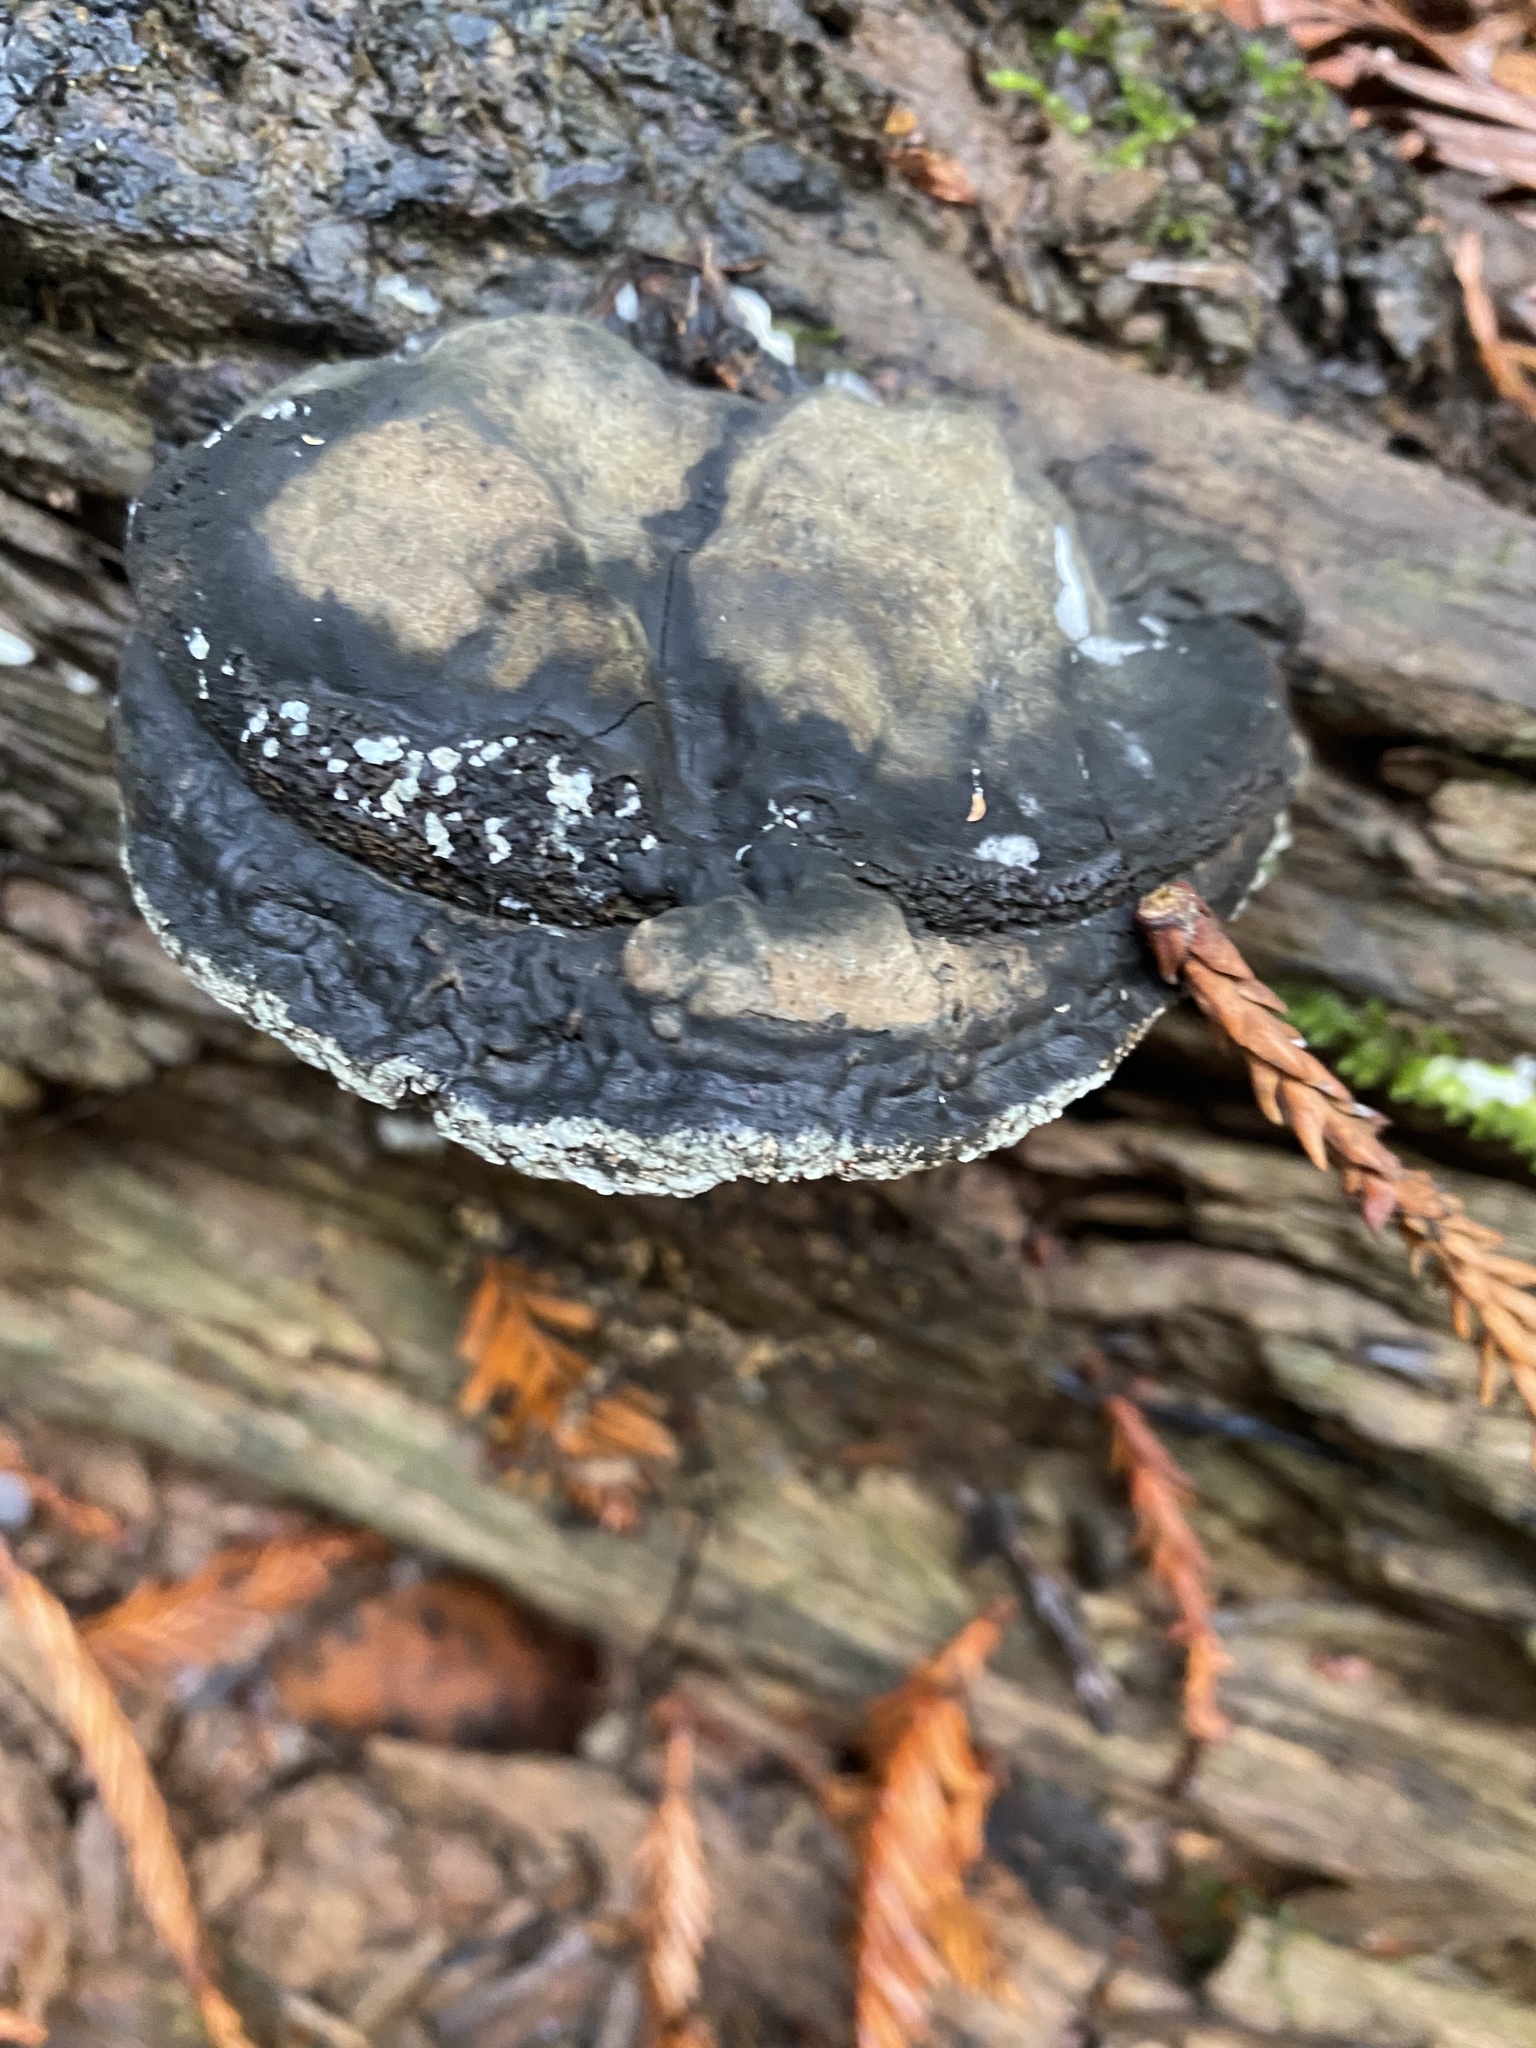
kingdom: Fungi
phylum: Basidiomycota
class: Agaricomycetes
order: Polyporales
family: Polyporaceae
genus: Ganoderma
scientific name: Ganoderma brownii
